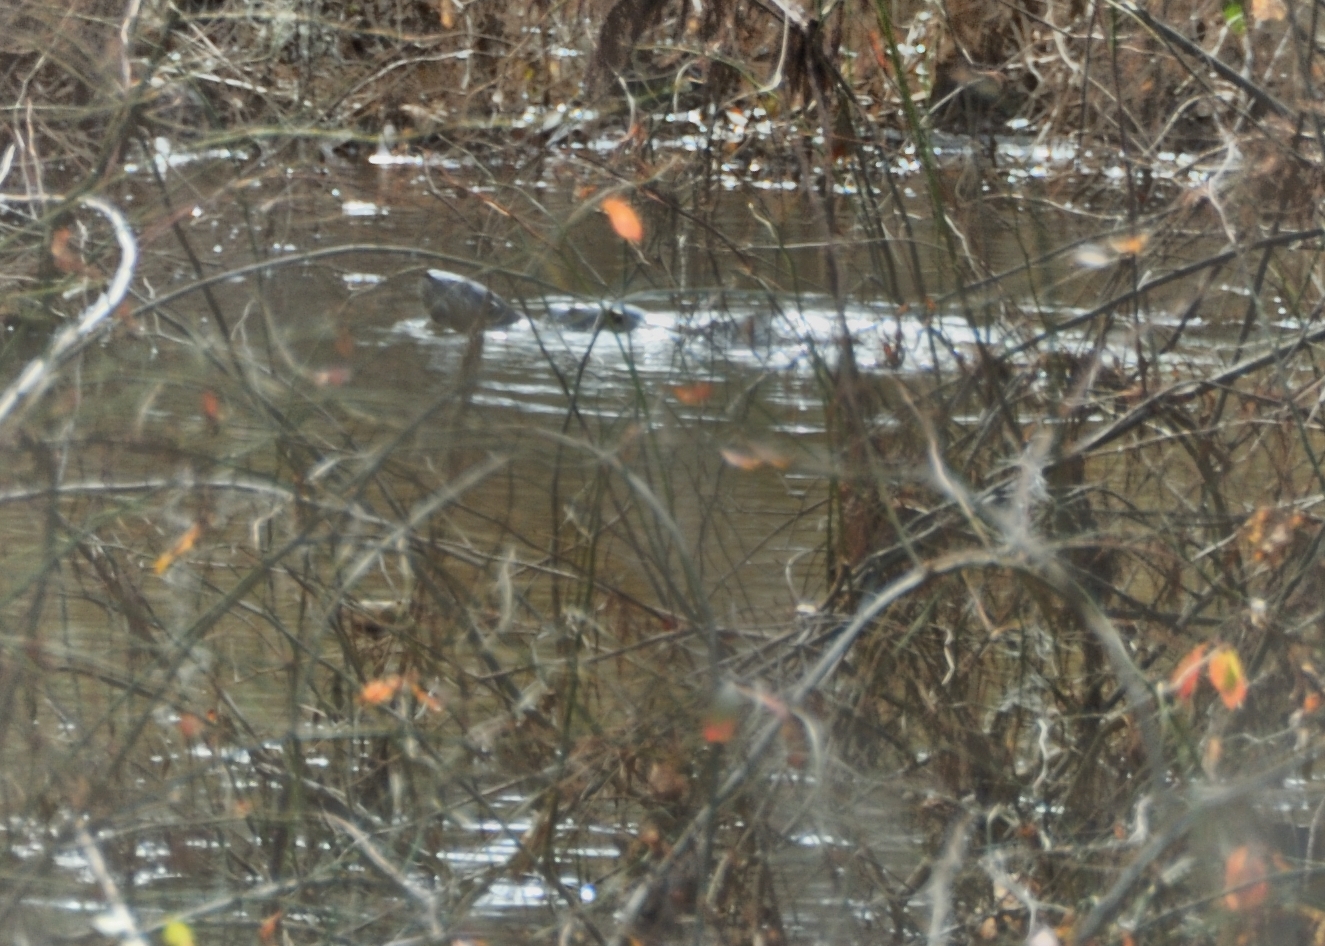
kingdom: Animalia
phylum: Chordata
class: Mammalia
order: Carnivora
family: Mustelidae
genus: Lontra
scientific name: Lontra canadensis
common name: North american river otter
